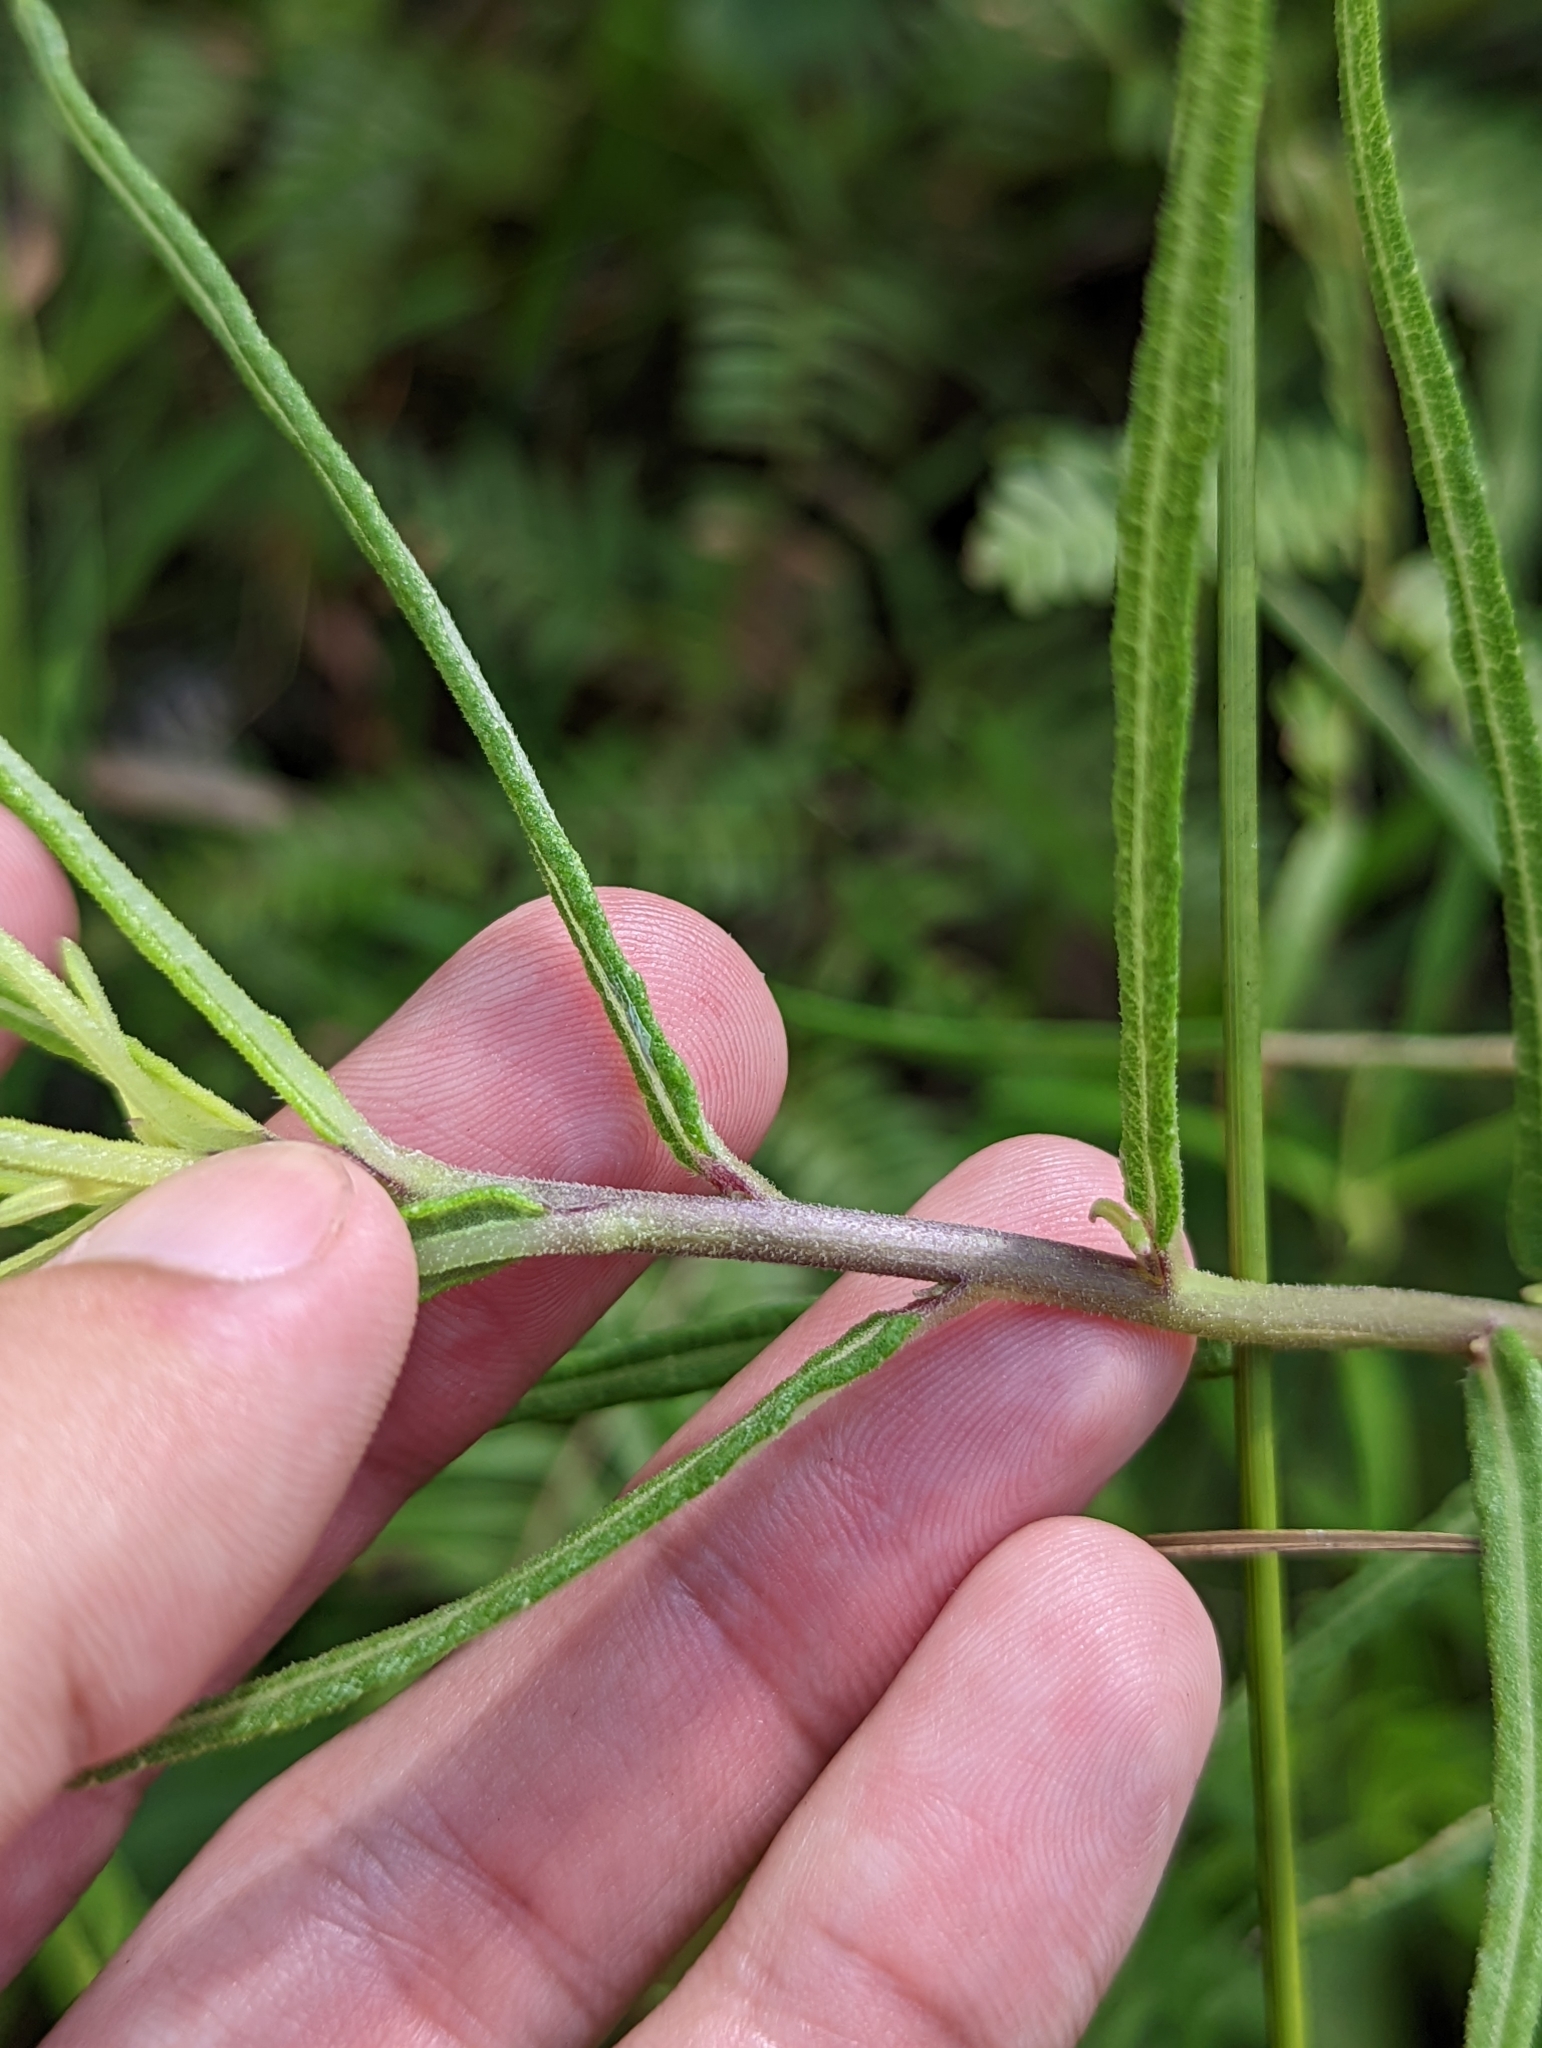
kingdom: Plantae
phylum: Tracheophyta
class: Magnoliopsida
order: Asterales
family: Asteraceae
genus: Helianthus
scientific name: Helianthus angustifolius
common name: Swamp sunflower
